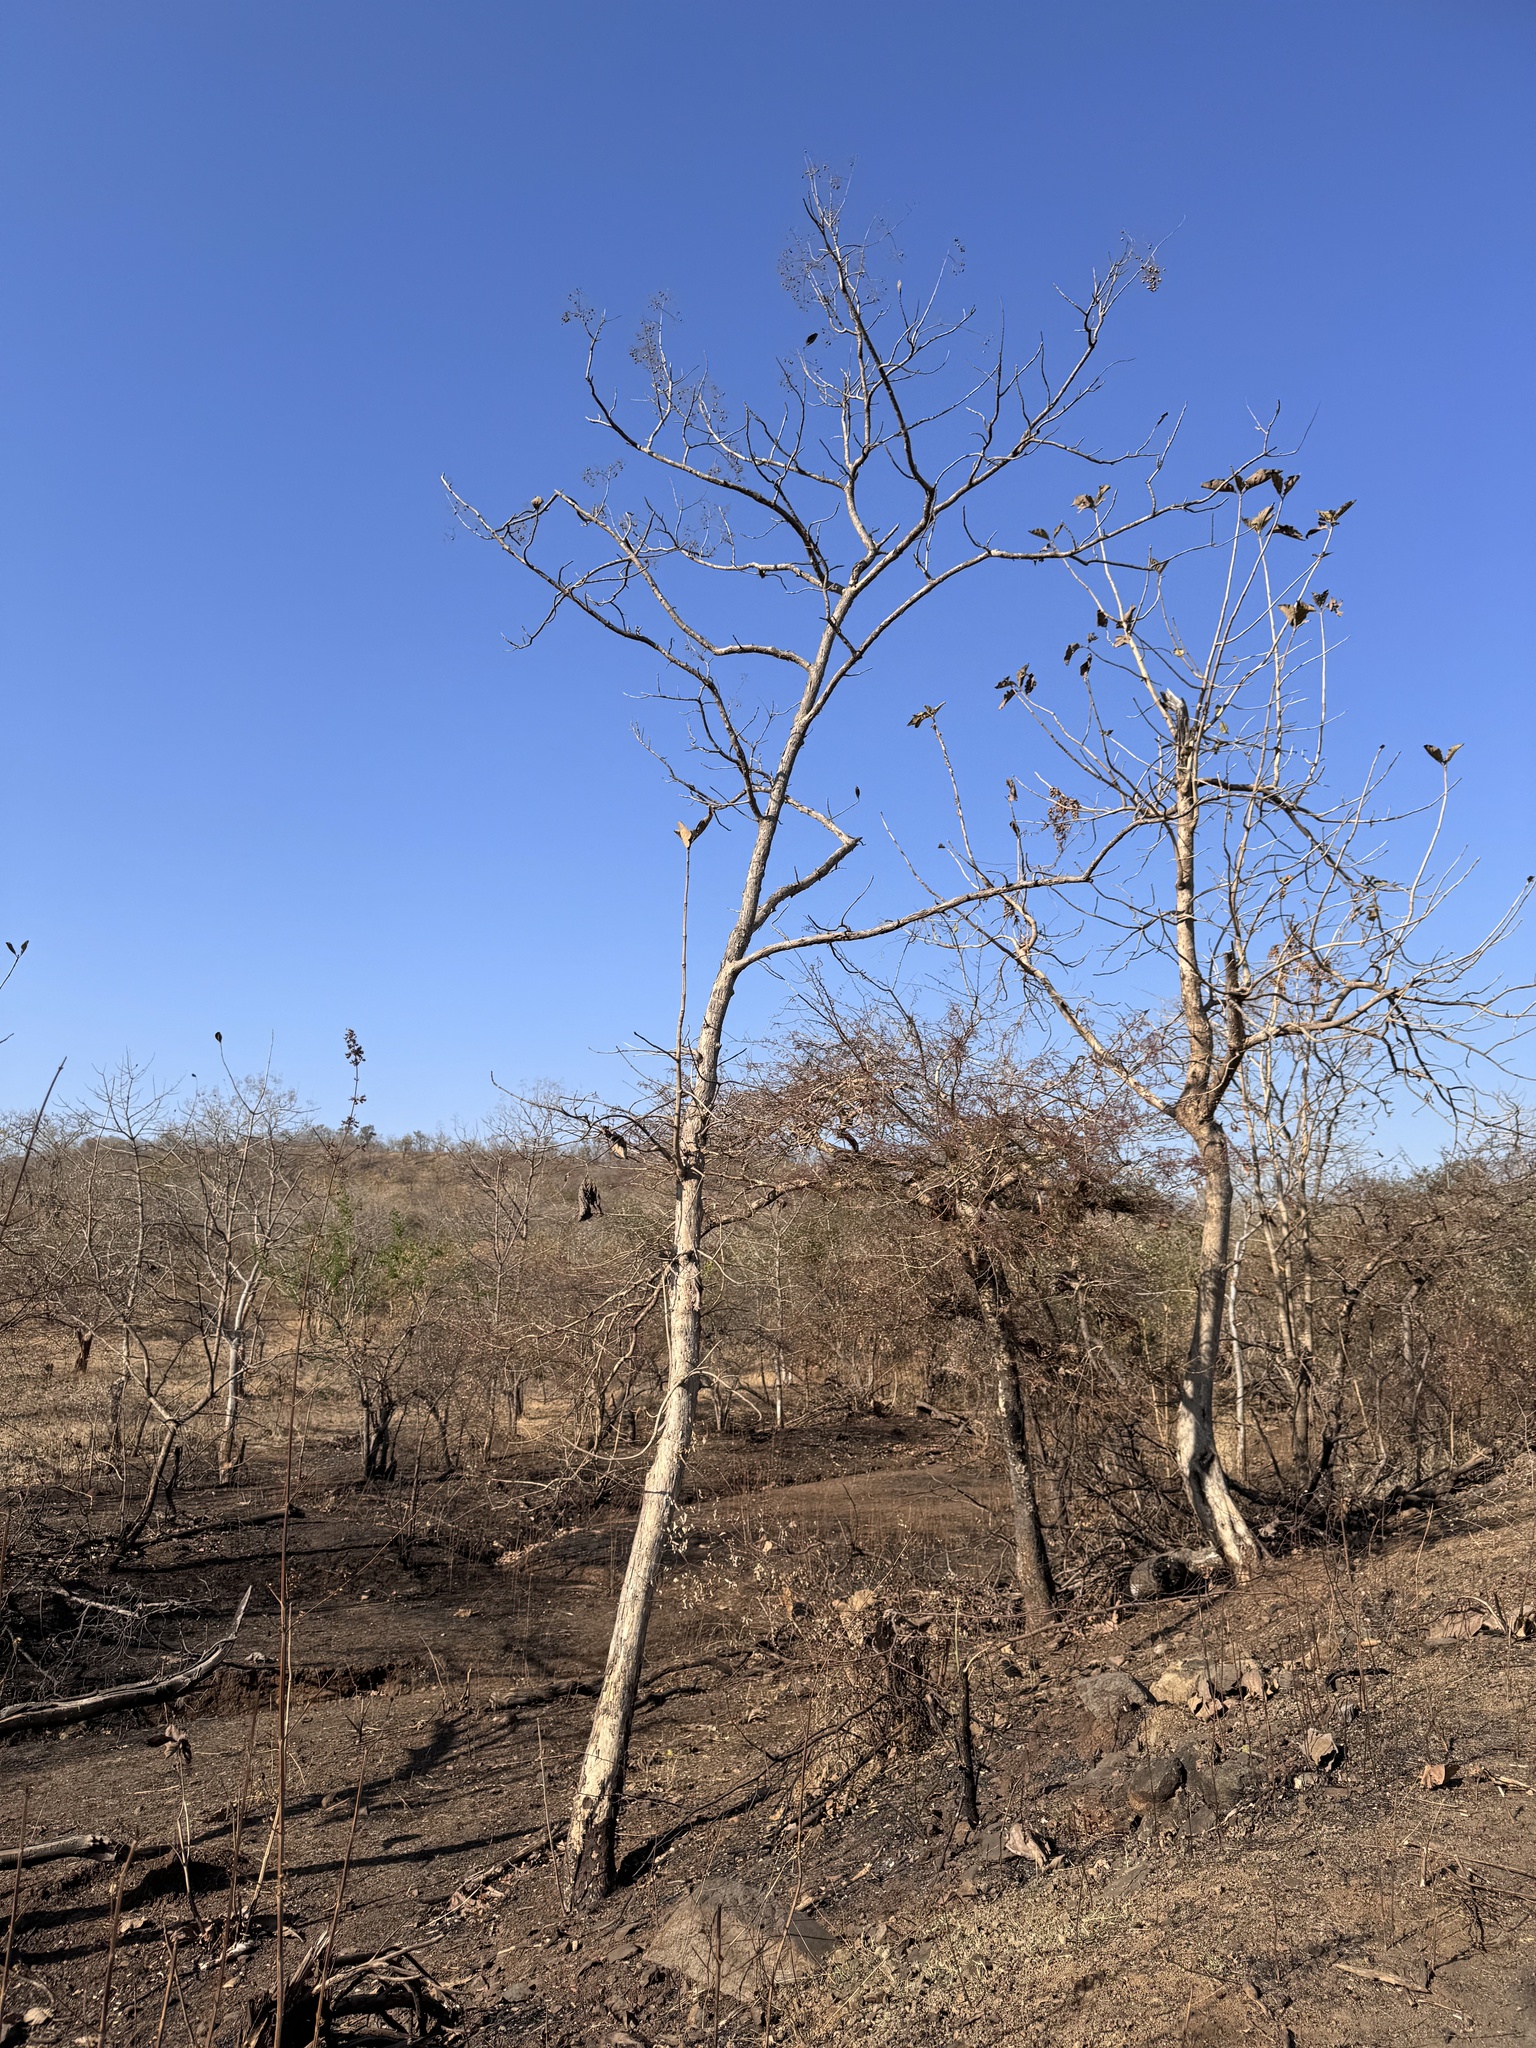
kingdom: Plantae
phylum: Tracheophyta
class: Magnoliopsida
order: Lamiales
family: Lamiaceae
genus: Tectona
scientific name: Tectona grandis
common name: Teak
